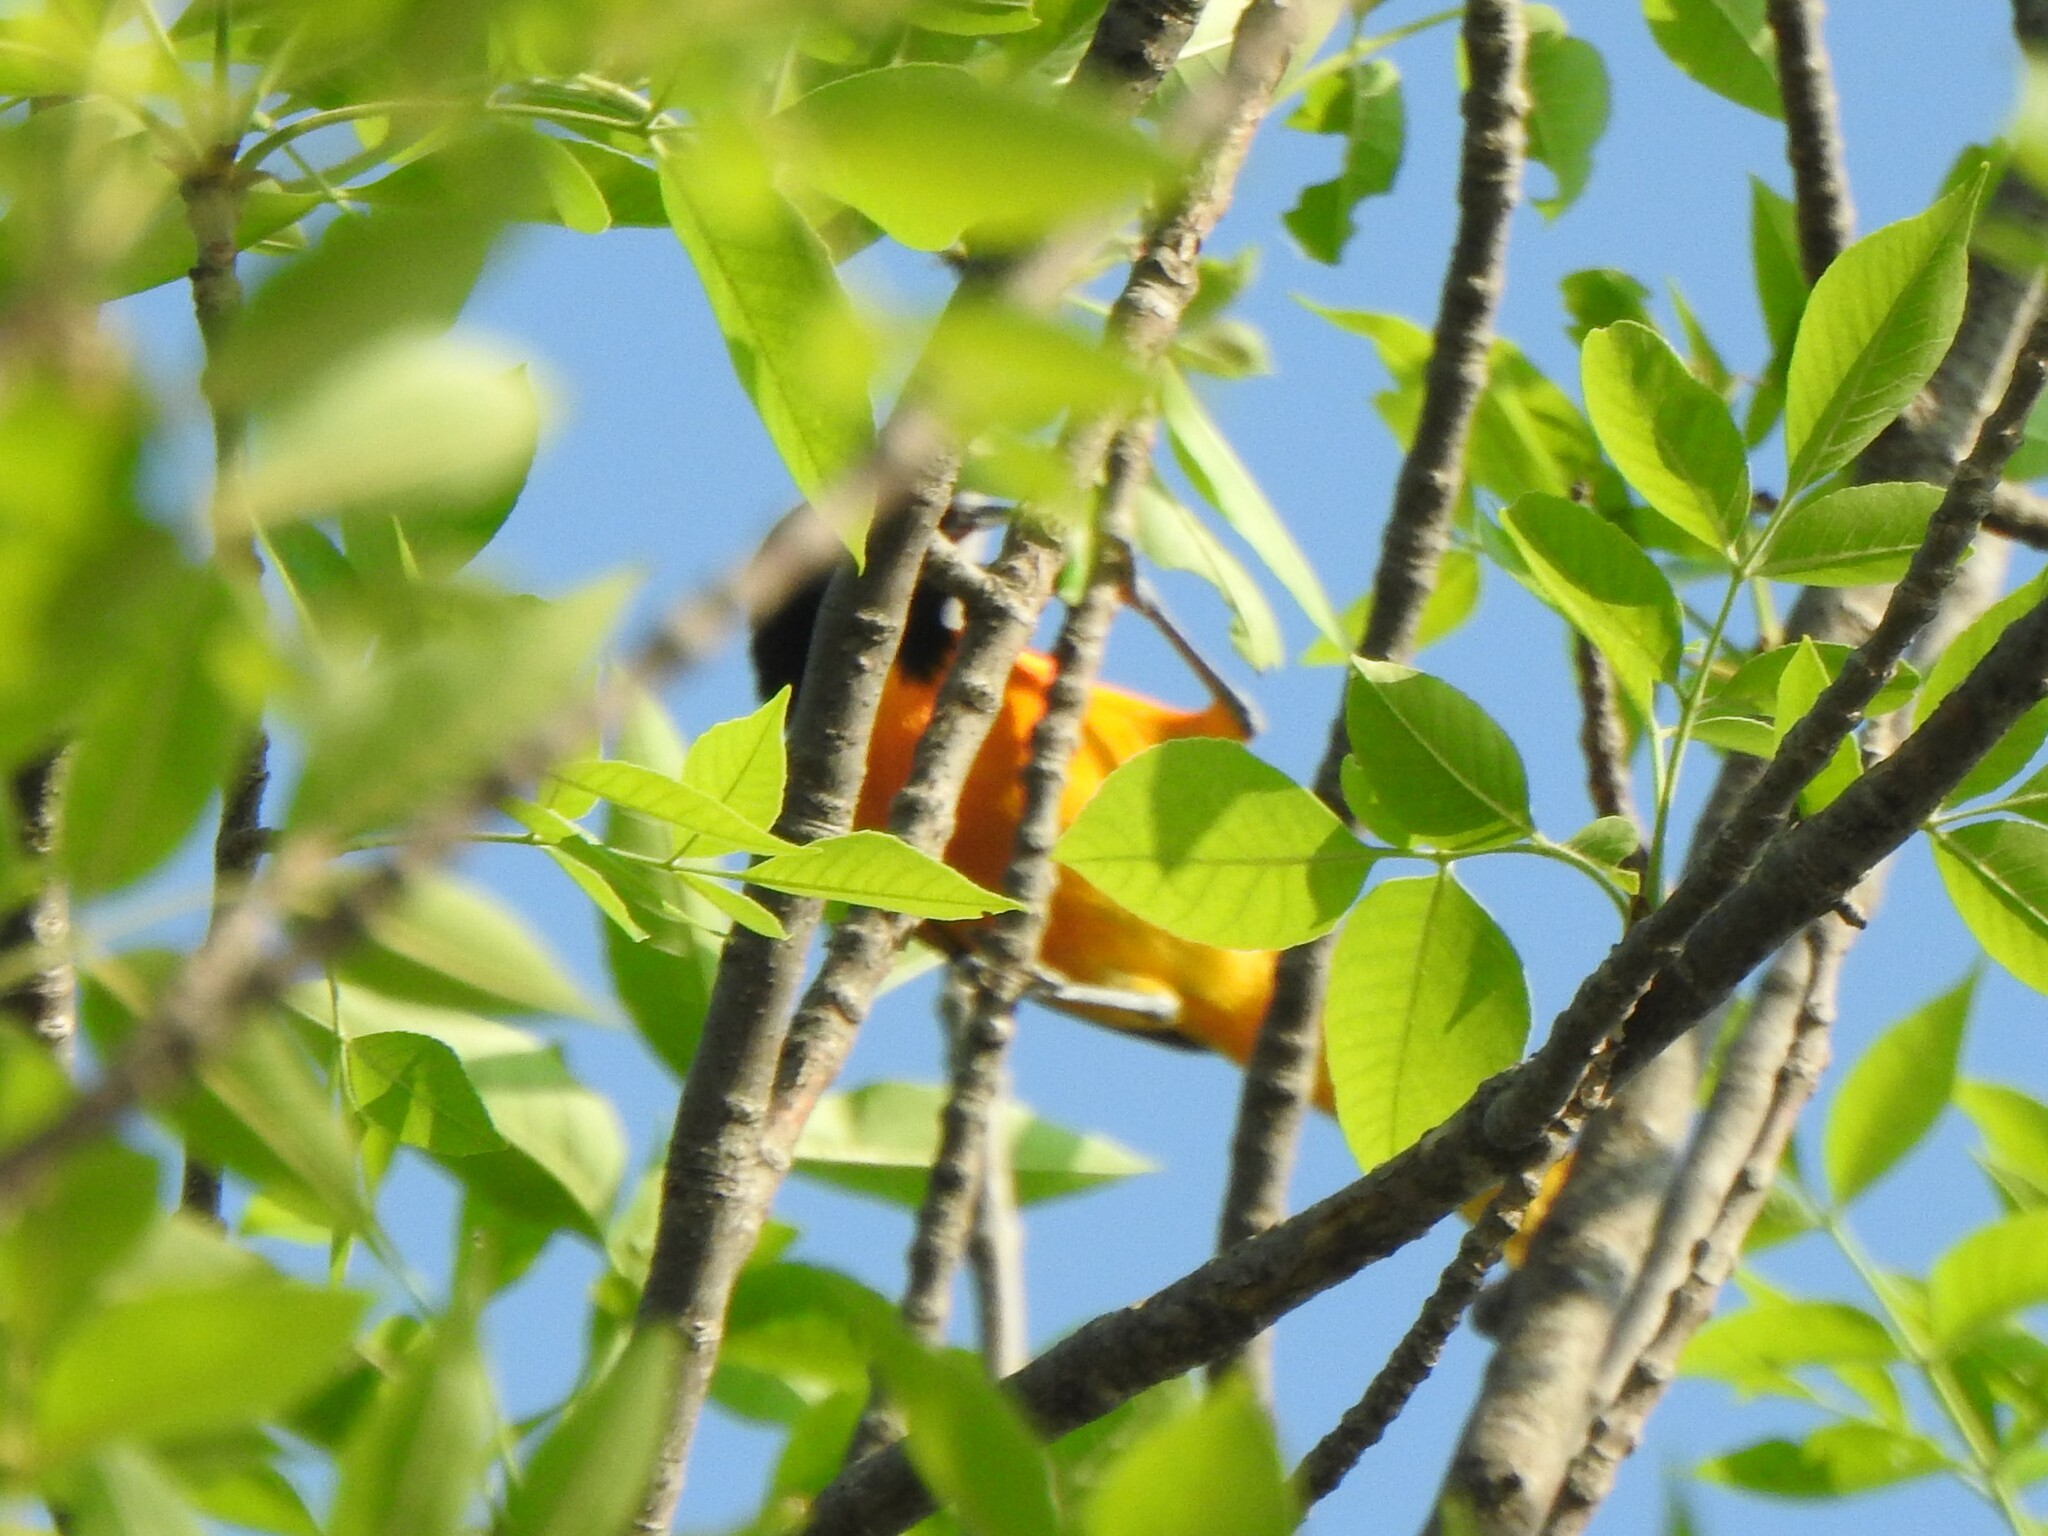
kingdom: Animalia
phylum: Chordata
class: Aves
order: Passeriformes
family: Icteridae
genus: Icterus
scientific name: Icterus galbula
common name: Baltimore oriole
